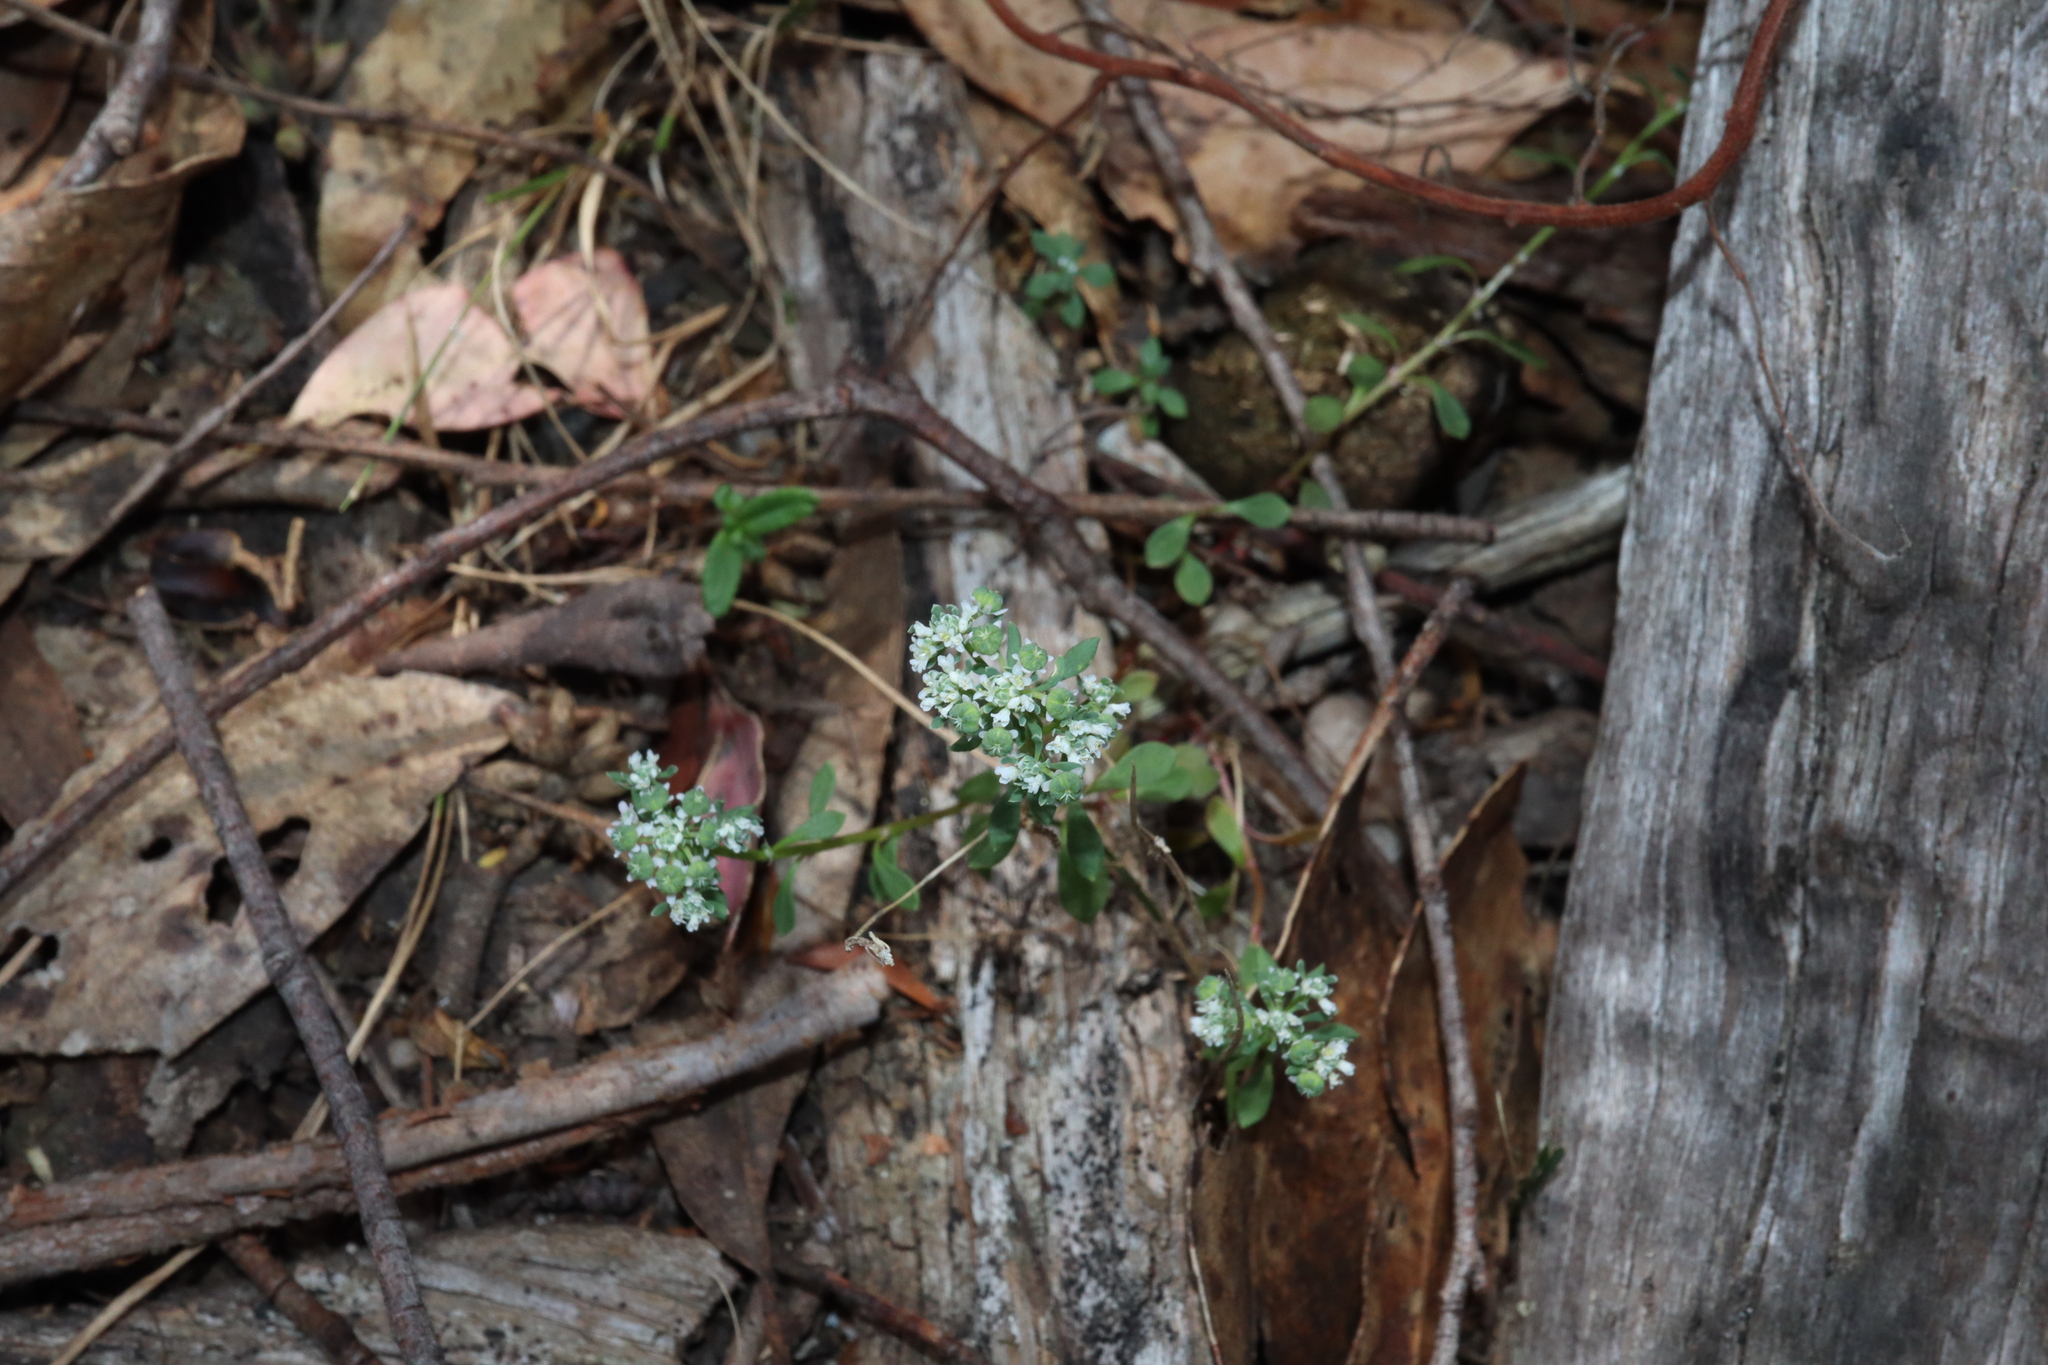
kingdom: Plantae
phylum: Tracheophyta
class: Magnoliopsida
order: Malpighiales
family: Phyllanthaceae
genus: Poranthera
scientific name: Poranthera microphylla
